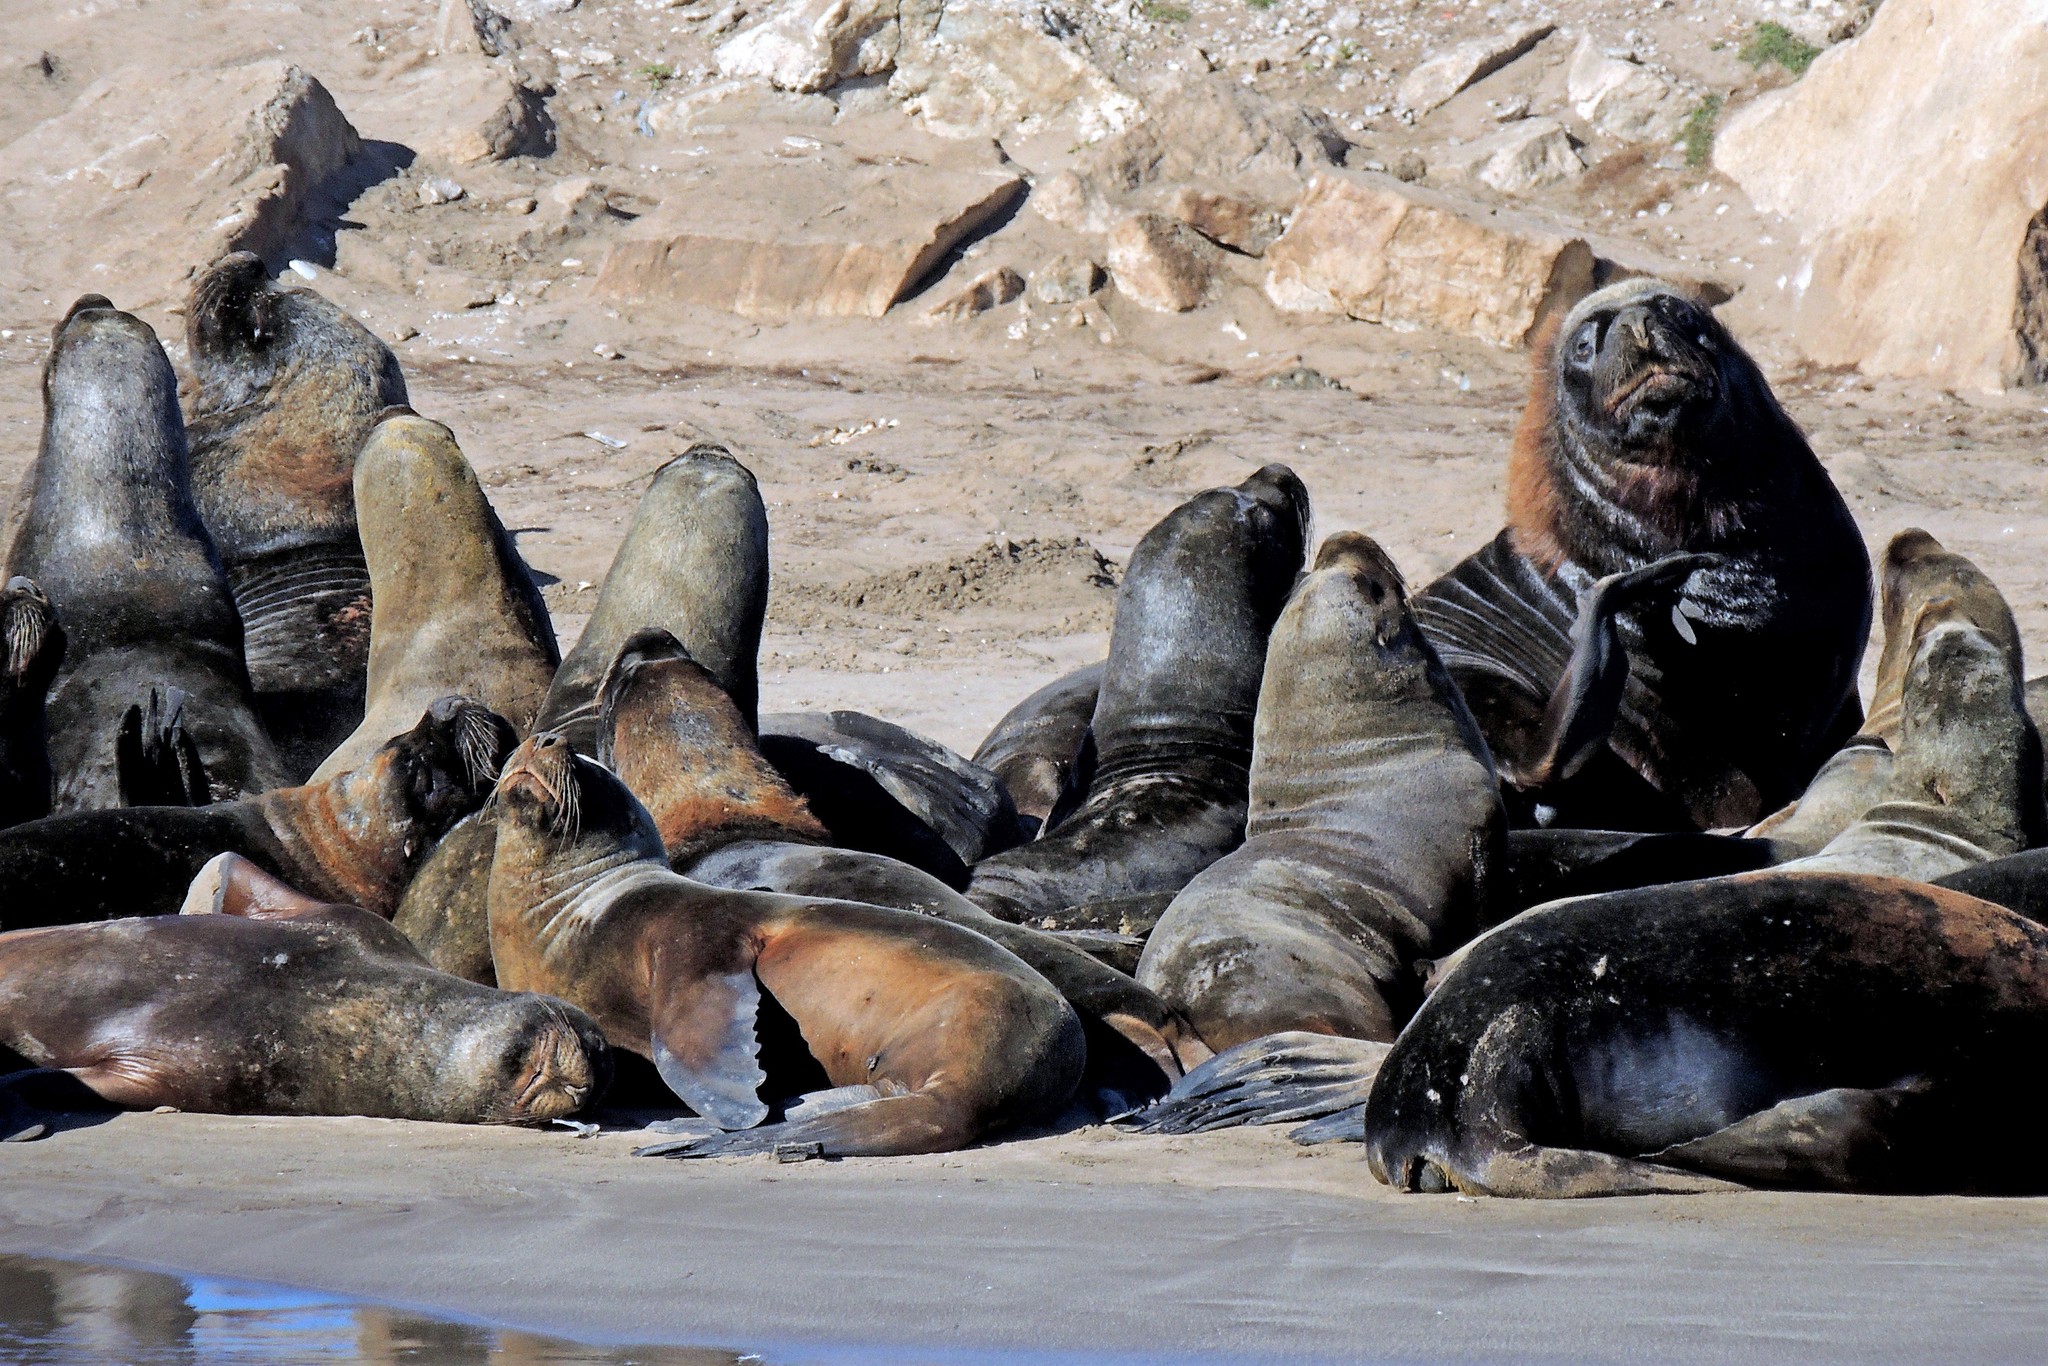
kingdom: Animalia
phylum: Chordata
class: Mammalia
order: Carnivora
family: Otariidae
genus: Otaria
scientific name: Otaria byronia
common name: South american sea lion
